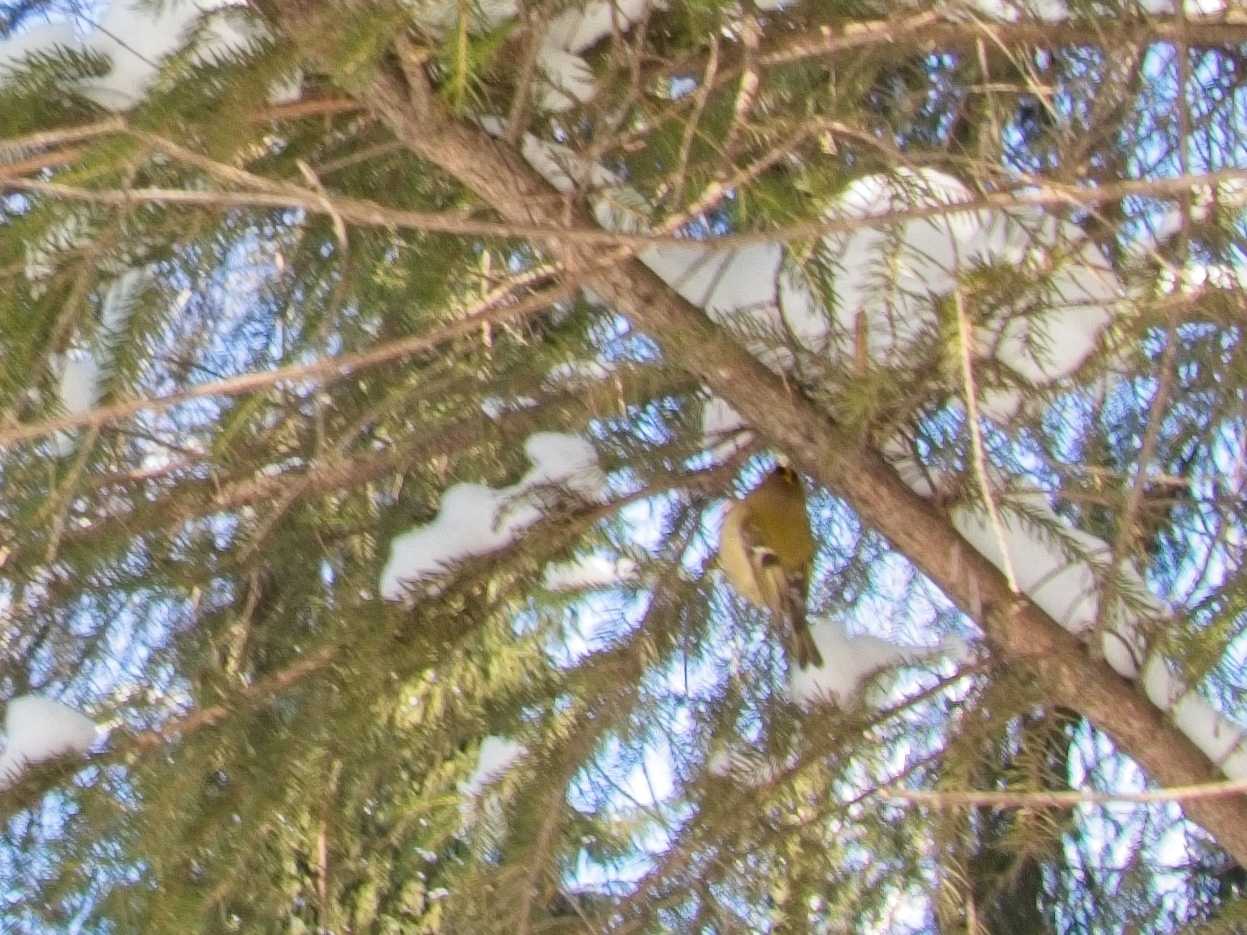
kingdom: Animalia
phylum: Chordata
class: Aves
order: Passeriformes
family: Regulidae
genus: Regulus
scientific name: Regulus regulus
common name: Goldcrest
